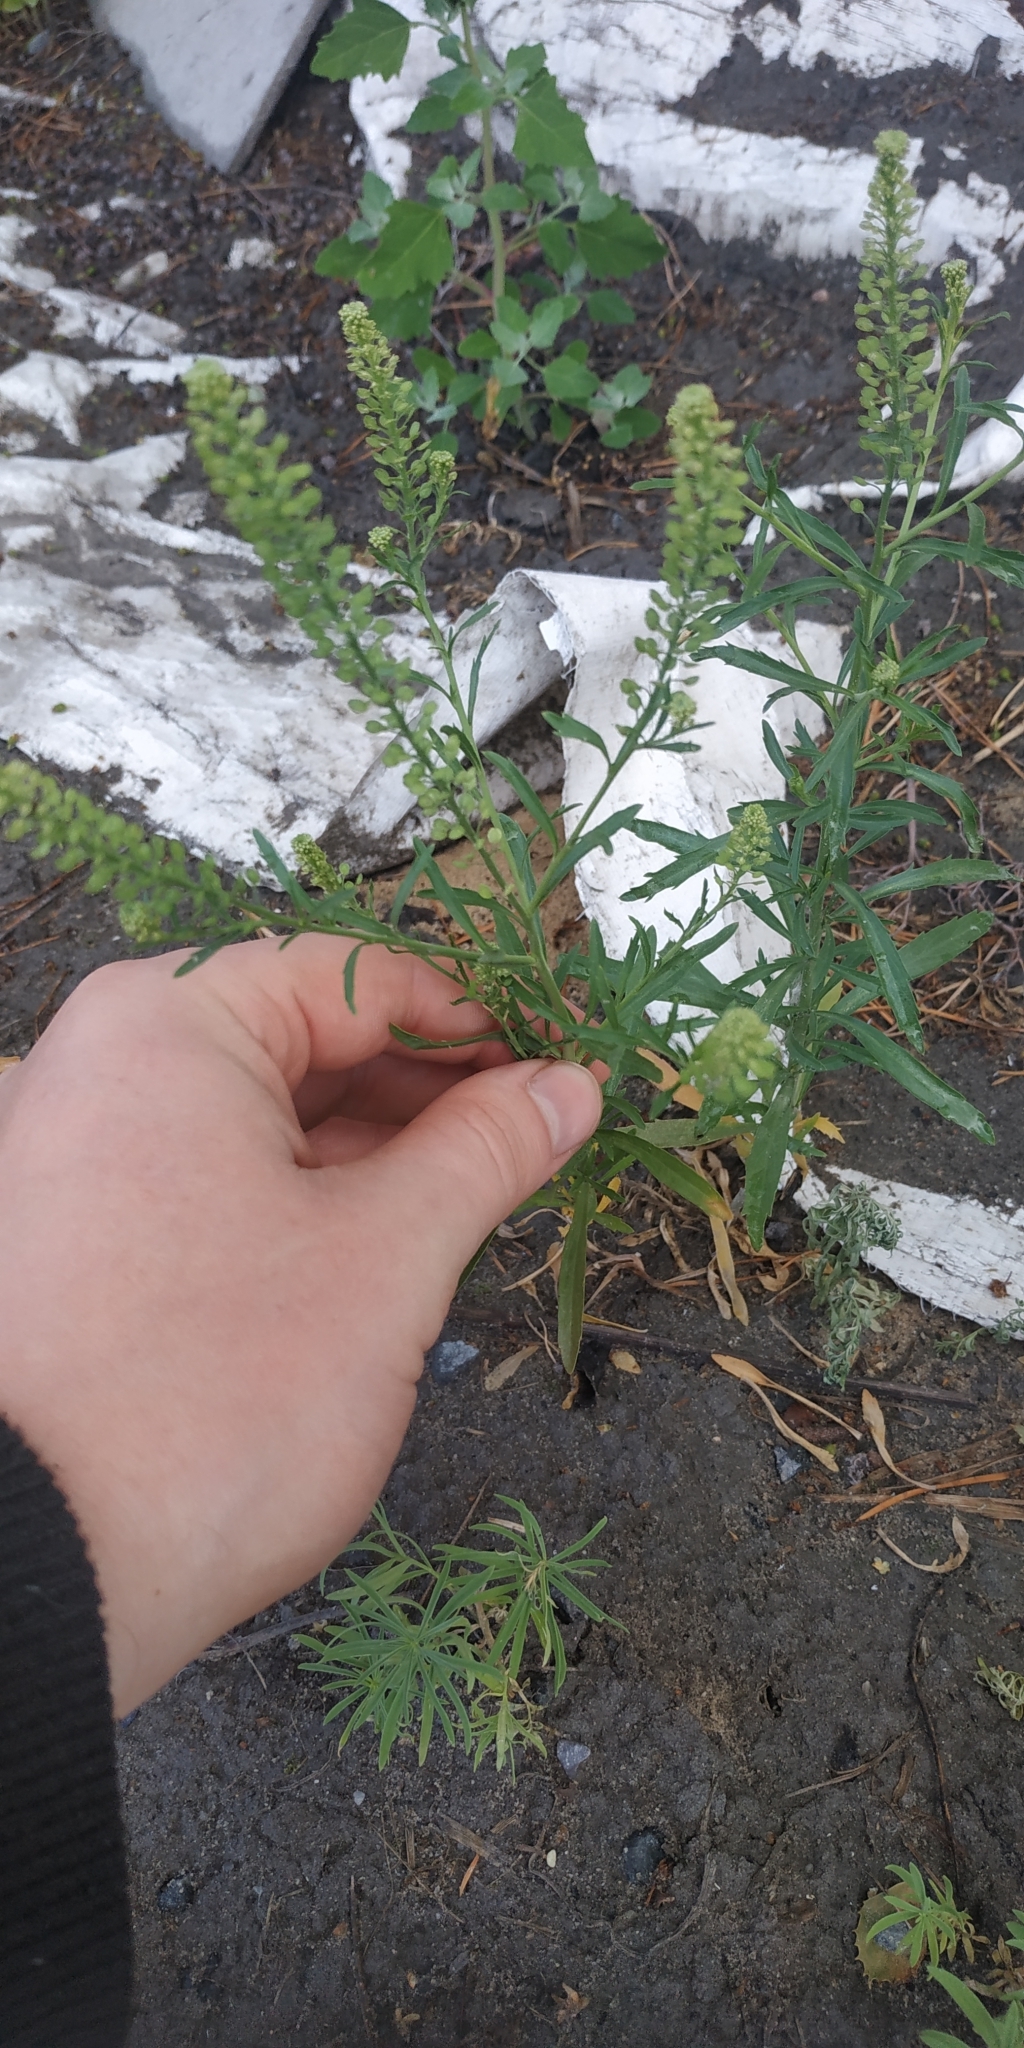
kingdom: Plantae
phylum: Tracheophyta
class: Magnoliopsida
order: Brassicales
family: Brassicaceae
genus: Lepidium
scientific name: Lepidium densiflorum
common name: Miner's pepperwort
